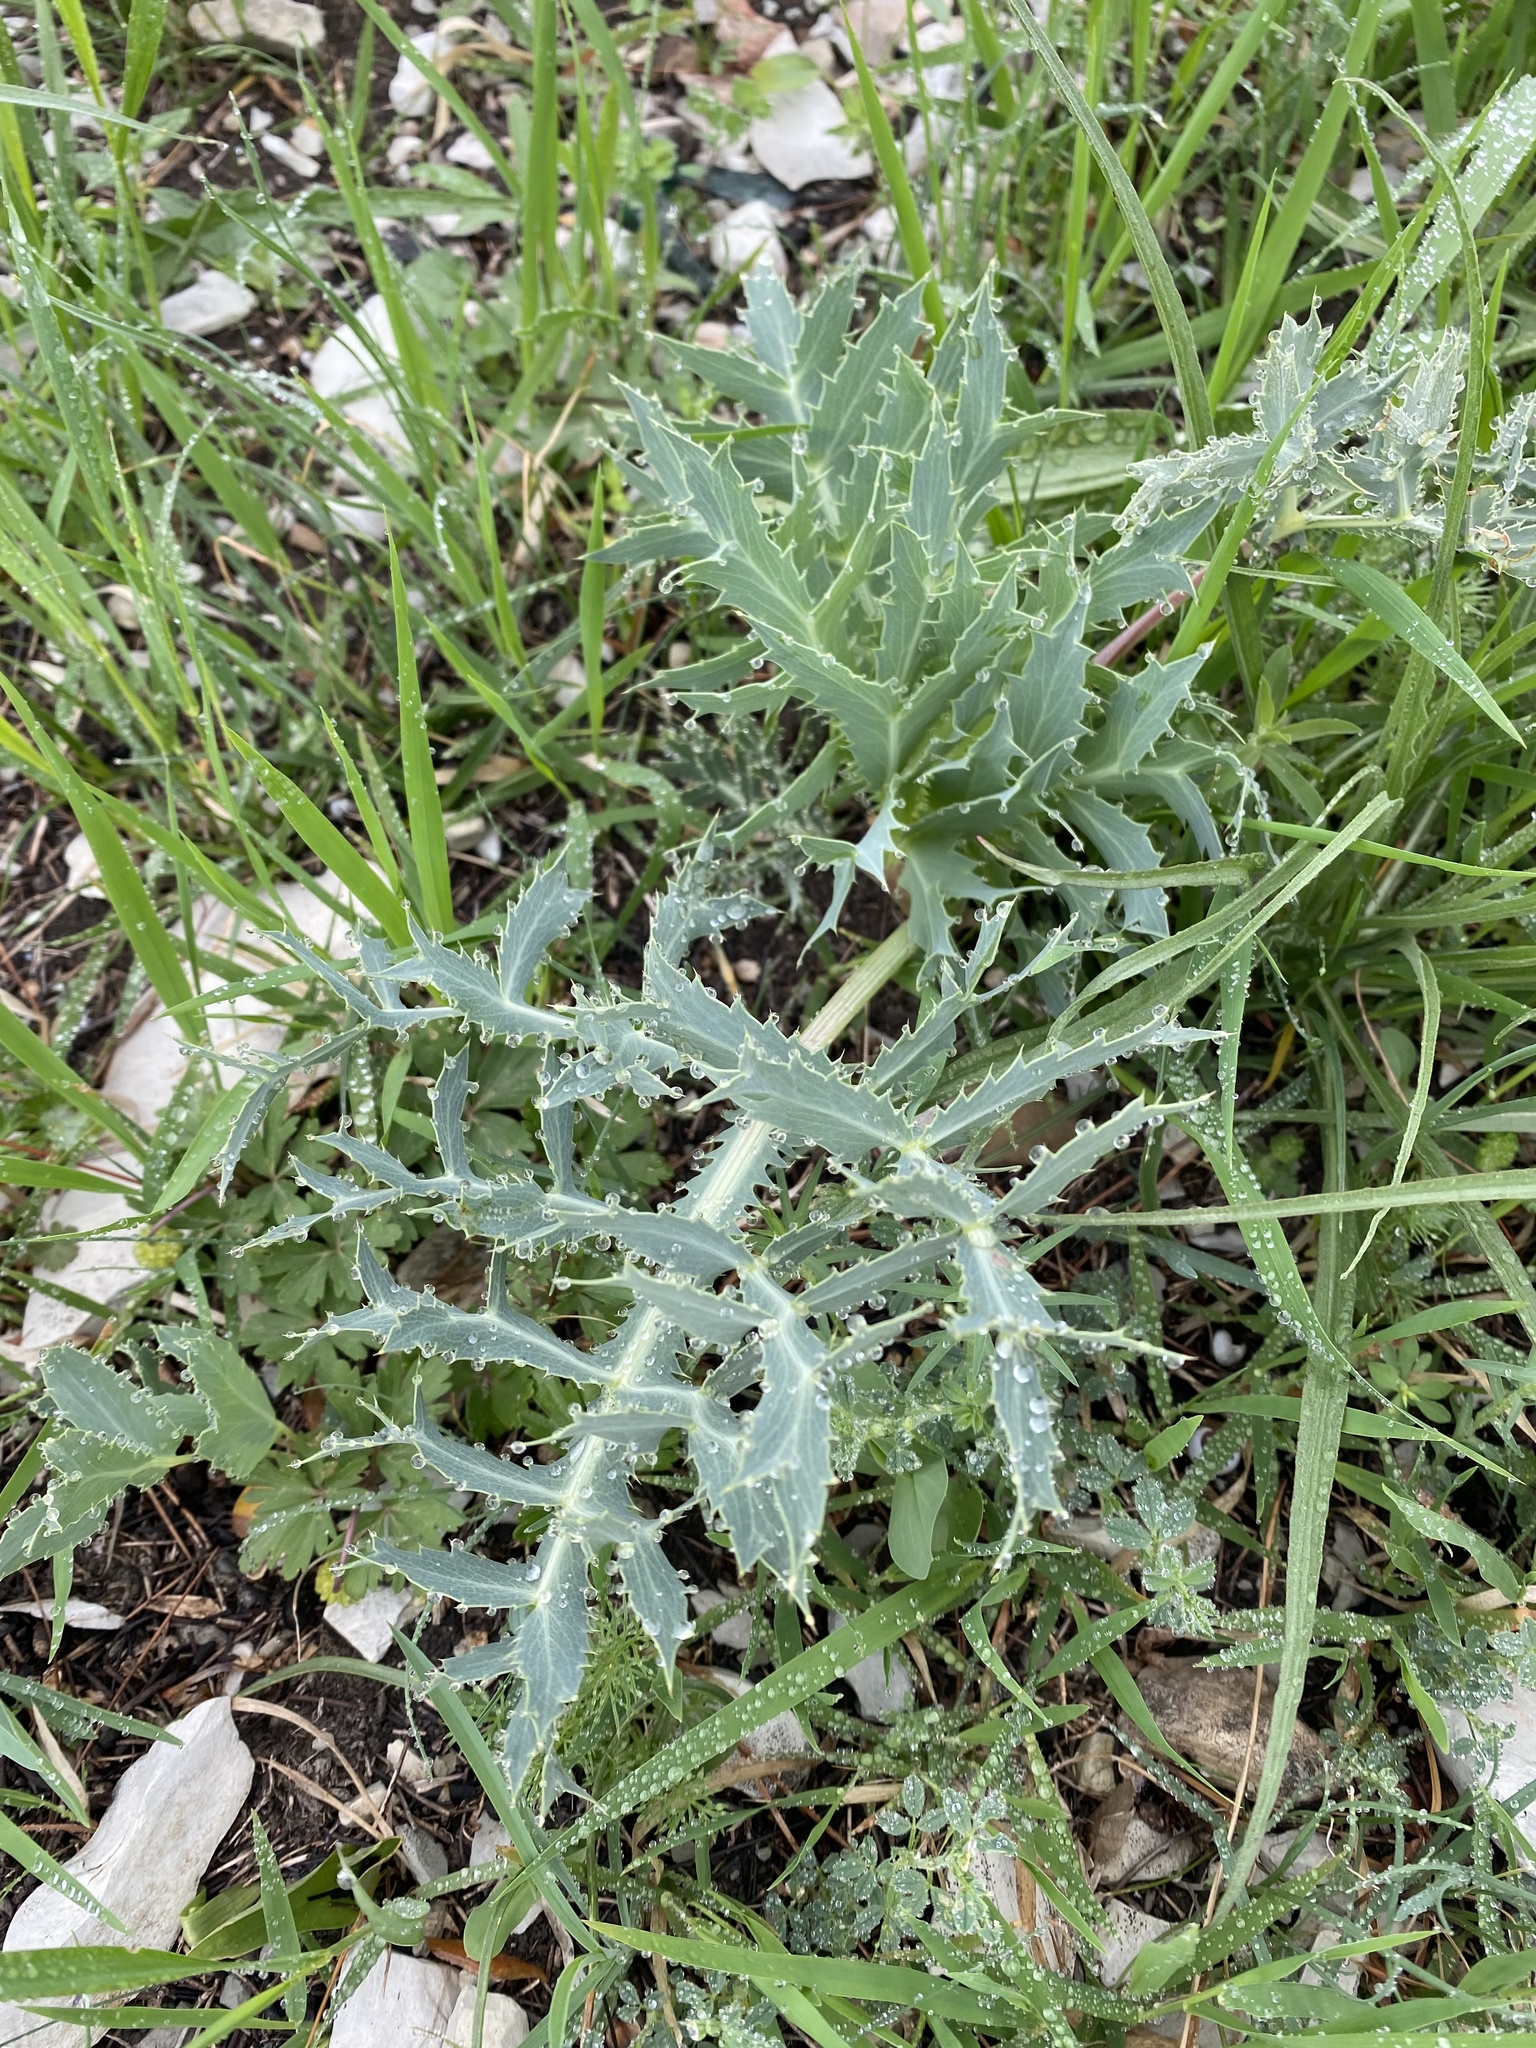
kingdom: Plantae
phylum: Tracheophyta
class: Magnoliopsida
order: Apiales
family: Apiaceae
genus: Eryngium
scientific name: Eryngium campestre
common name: Field eryngo
